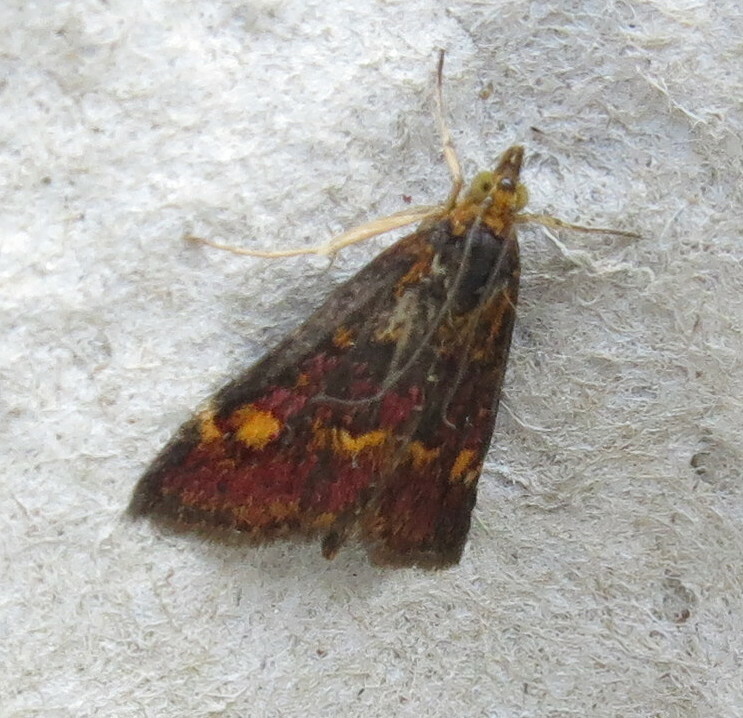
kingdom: Animalia
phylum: Arthropoda
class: Insecta
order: Lepidoptera
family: Crambidae
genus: Pyrausta
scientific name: Pyrausta aurata
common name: Small purple & gold
